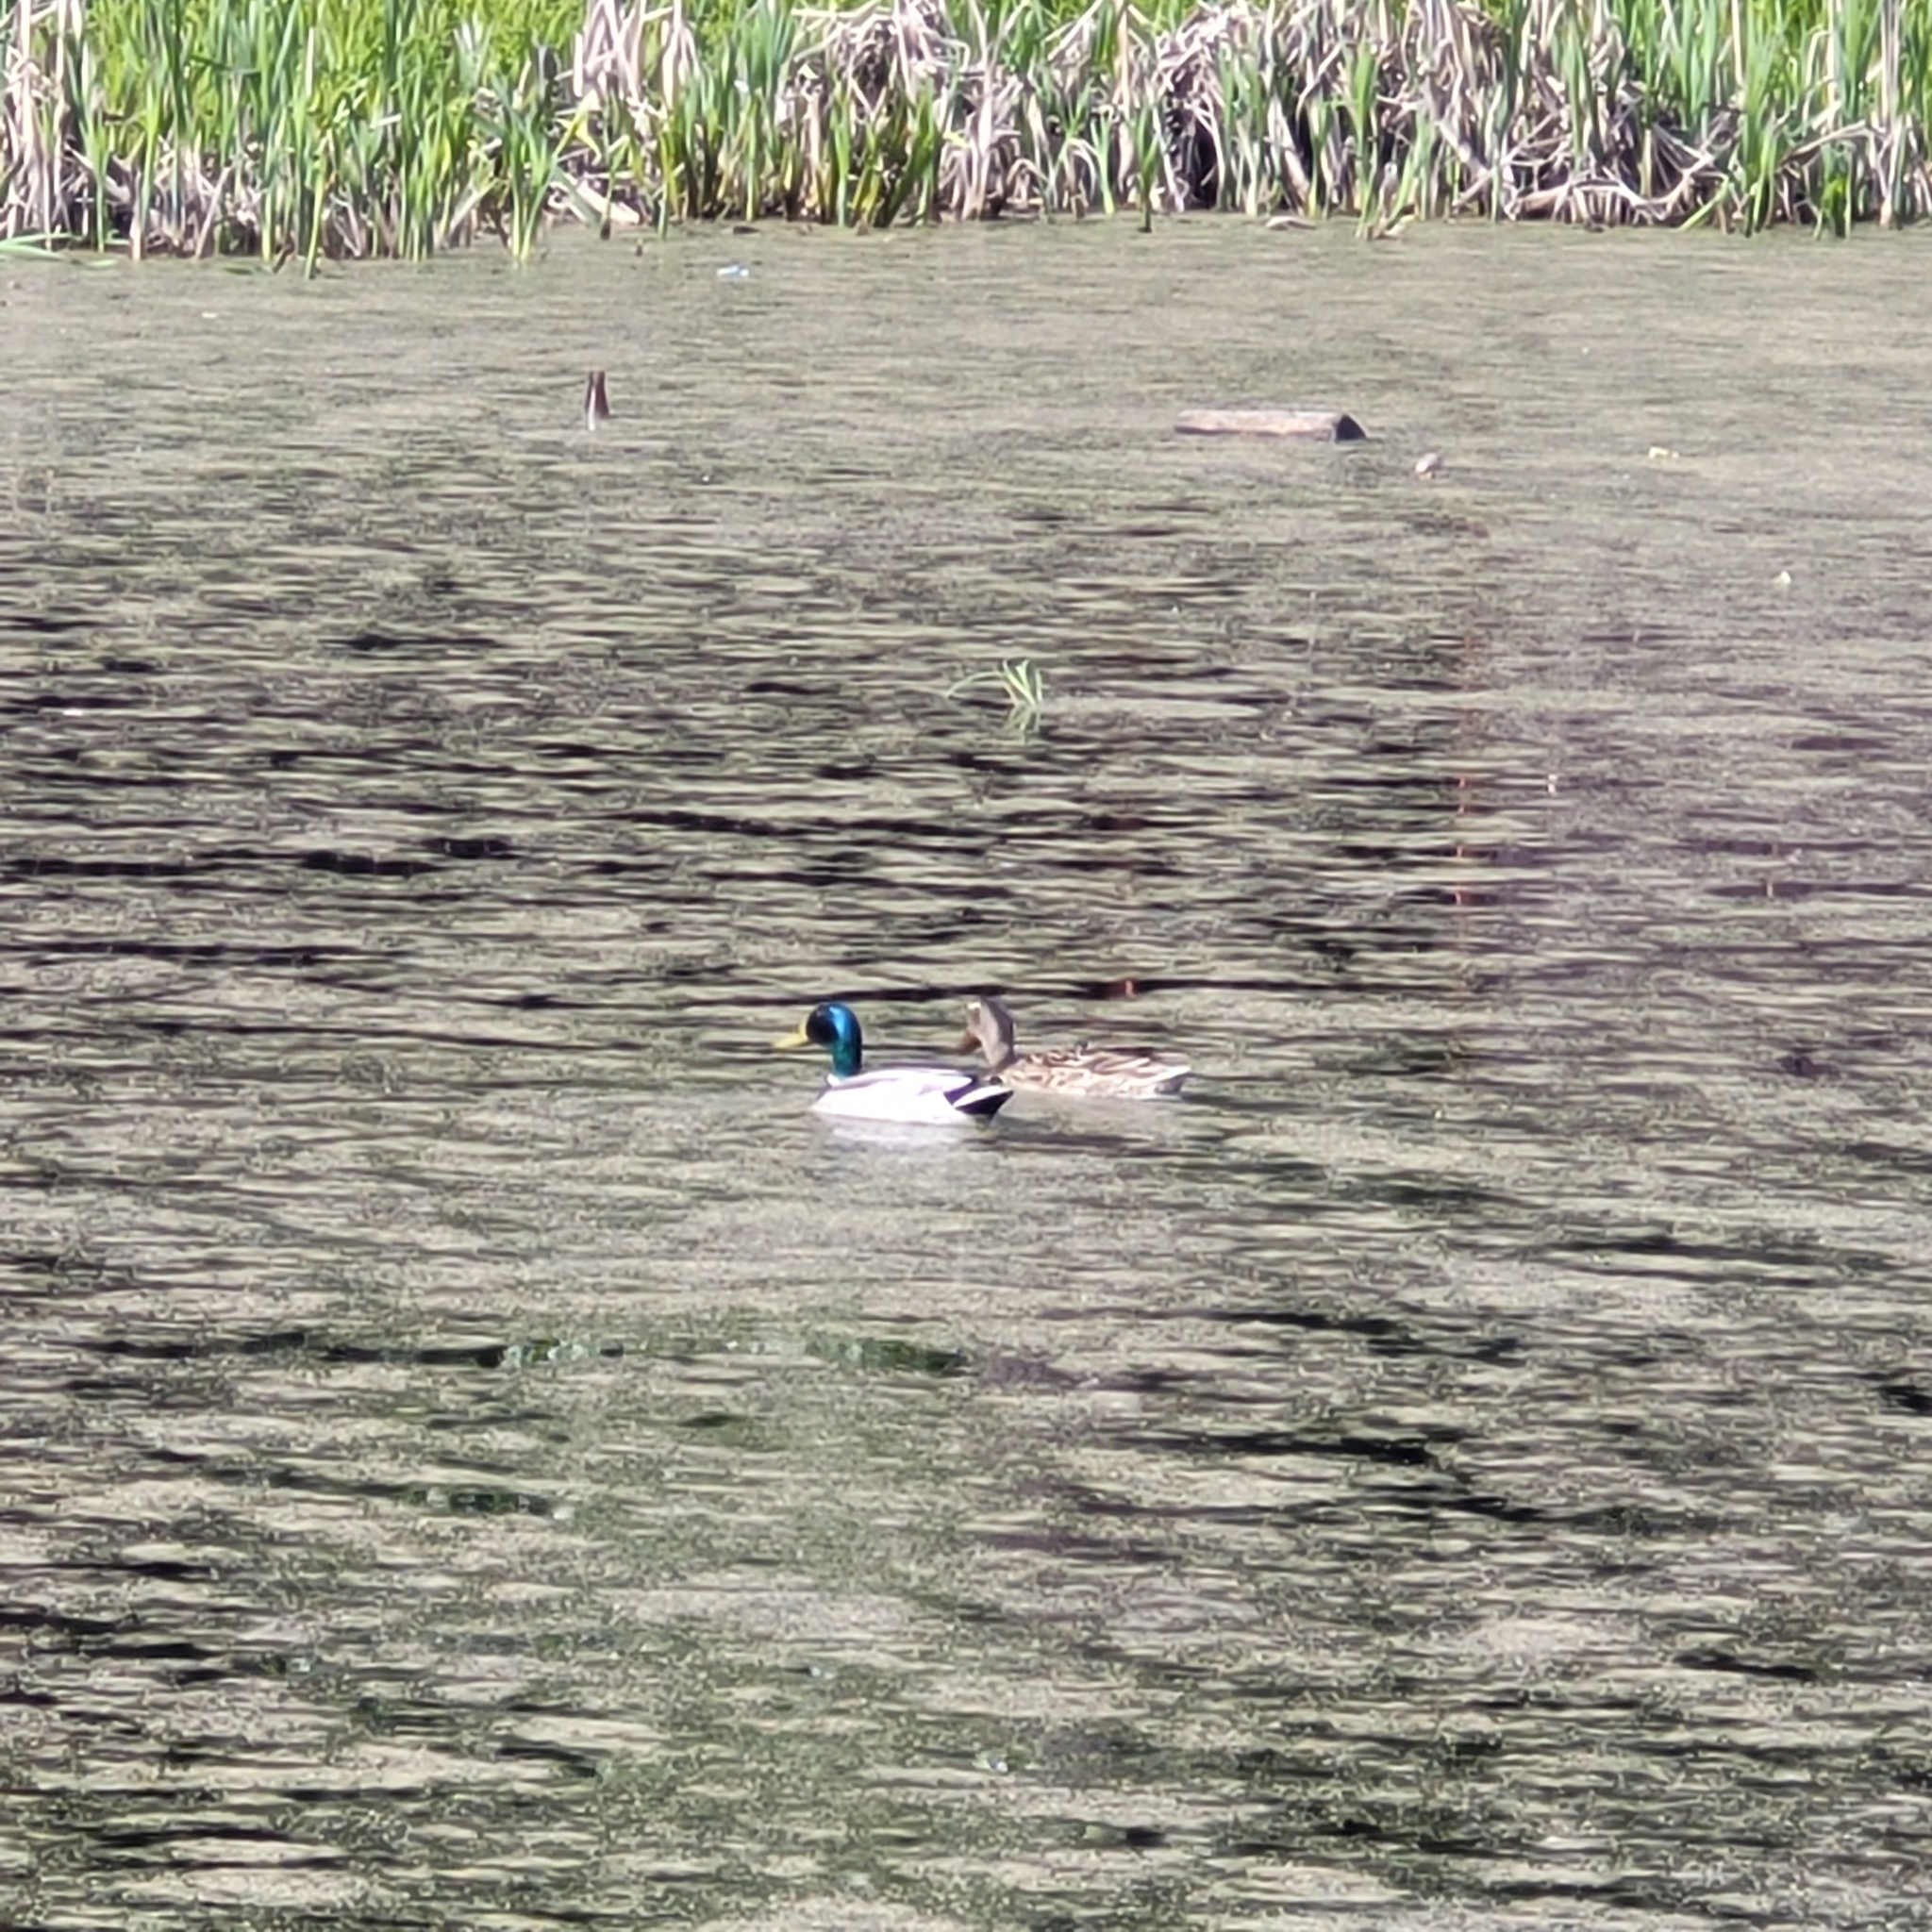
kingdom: Animalia
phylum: Chordata
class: Aves
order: Anseriformes
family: Anatidae
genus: Anas
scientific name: Anas platyrhynchos
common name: Mallard
